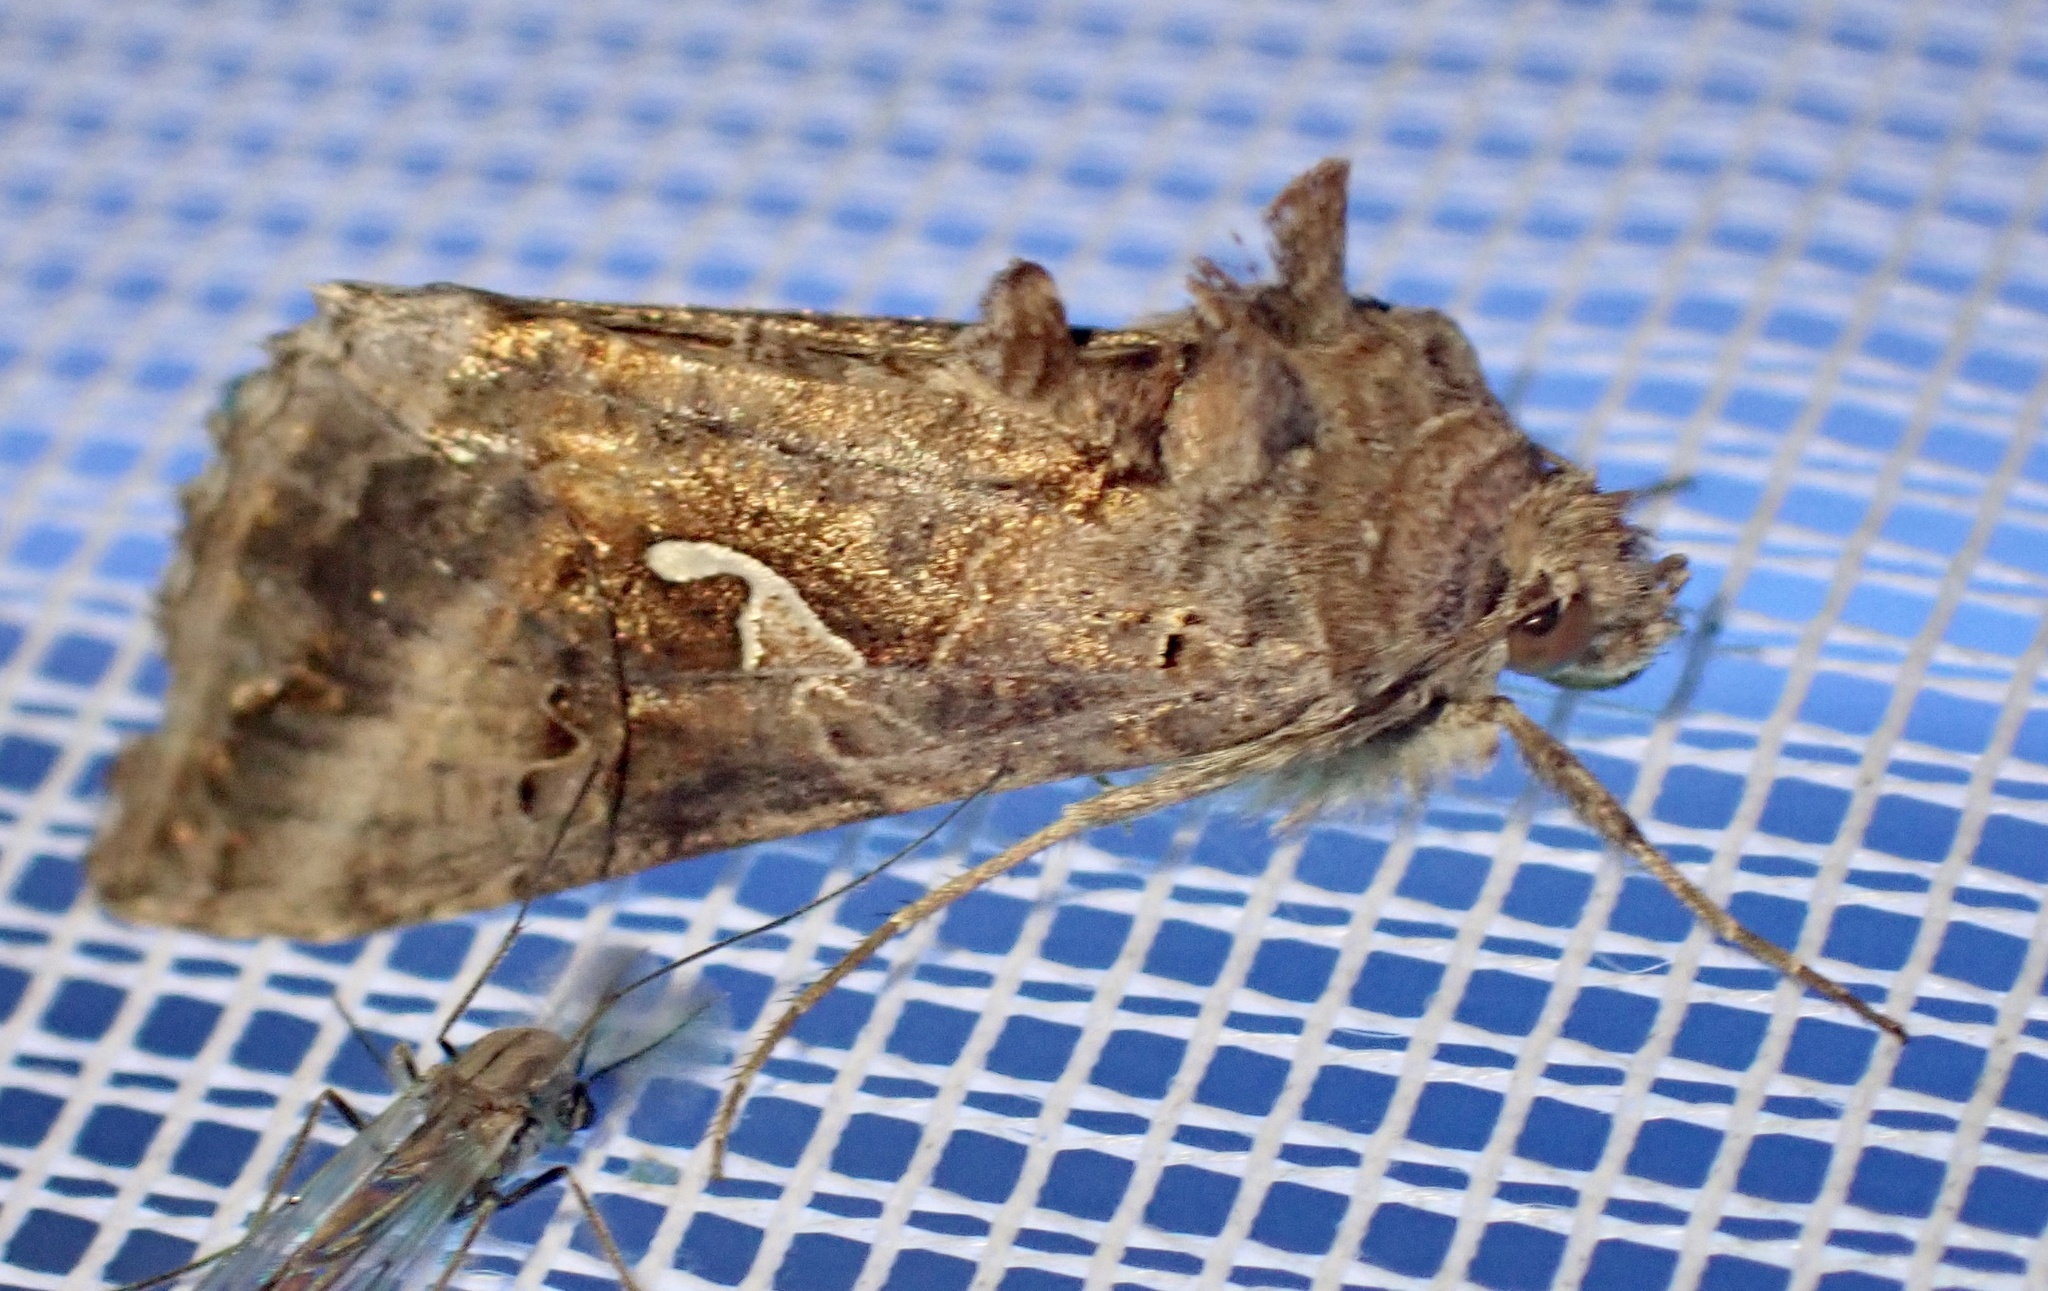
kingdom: Animalia
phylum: Arthropoda
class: Insecta
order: Lepidoptera
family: Noctuidae
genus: Autographa
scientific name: Autographa gamma
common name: Silver y
